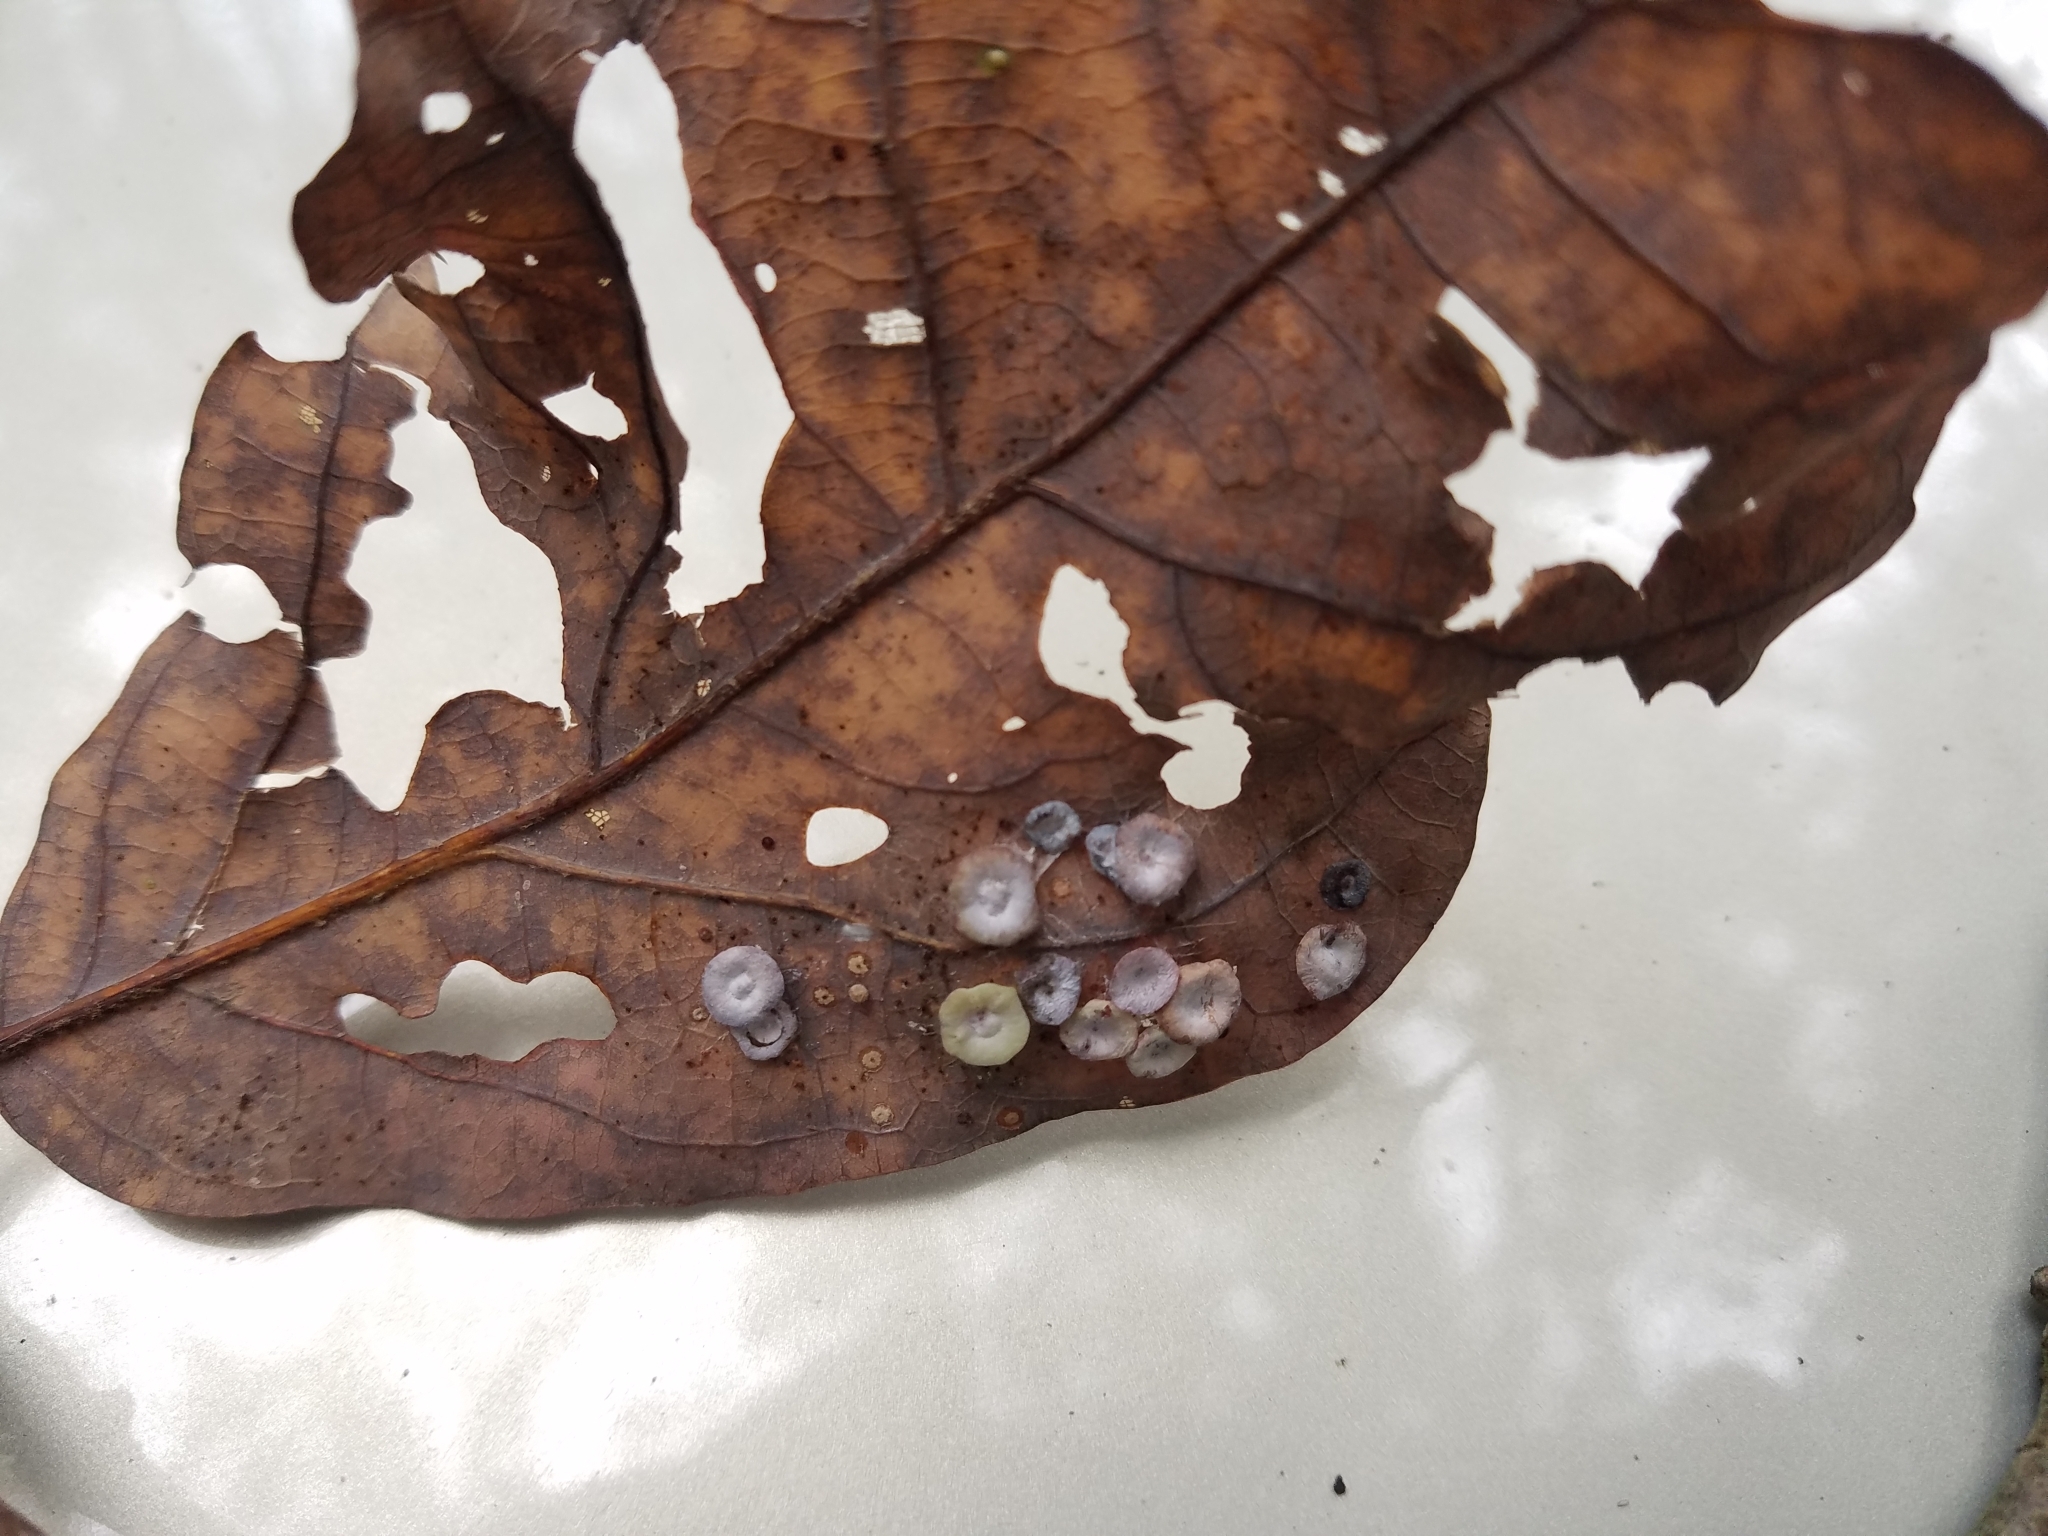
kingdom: Animalia
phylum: Arthropoda
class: Insecta
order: Hymenoptera
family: Cynipidae
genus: Phylloteras
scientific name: Phylloteras poculum
